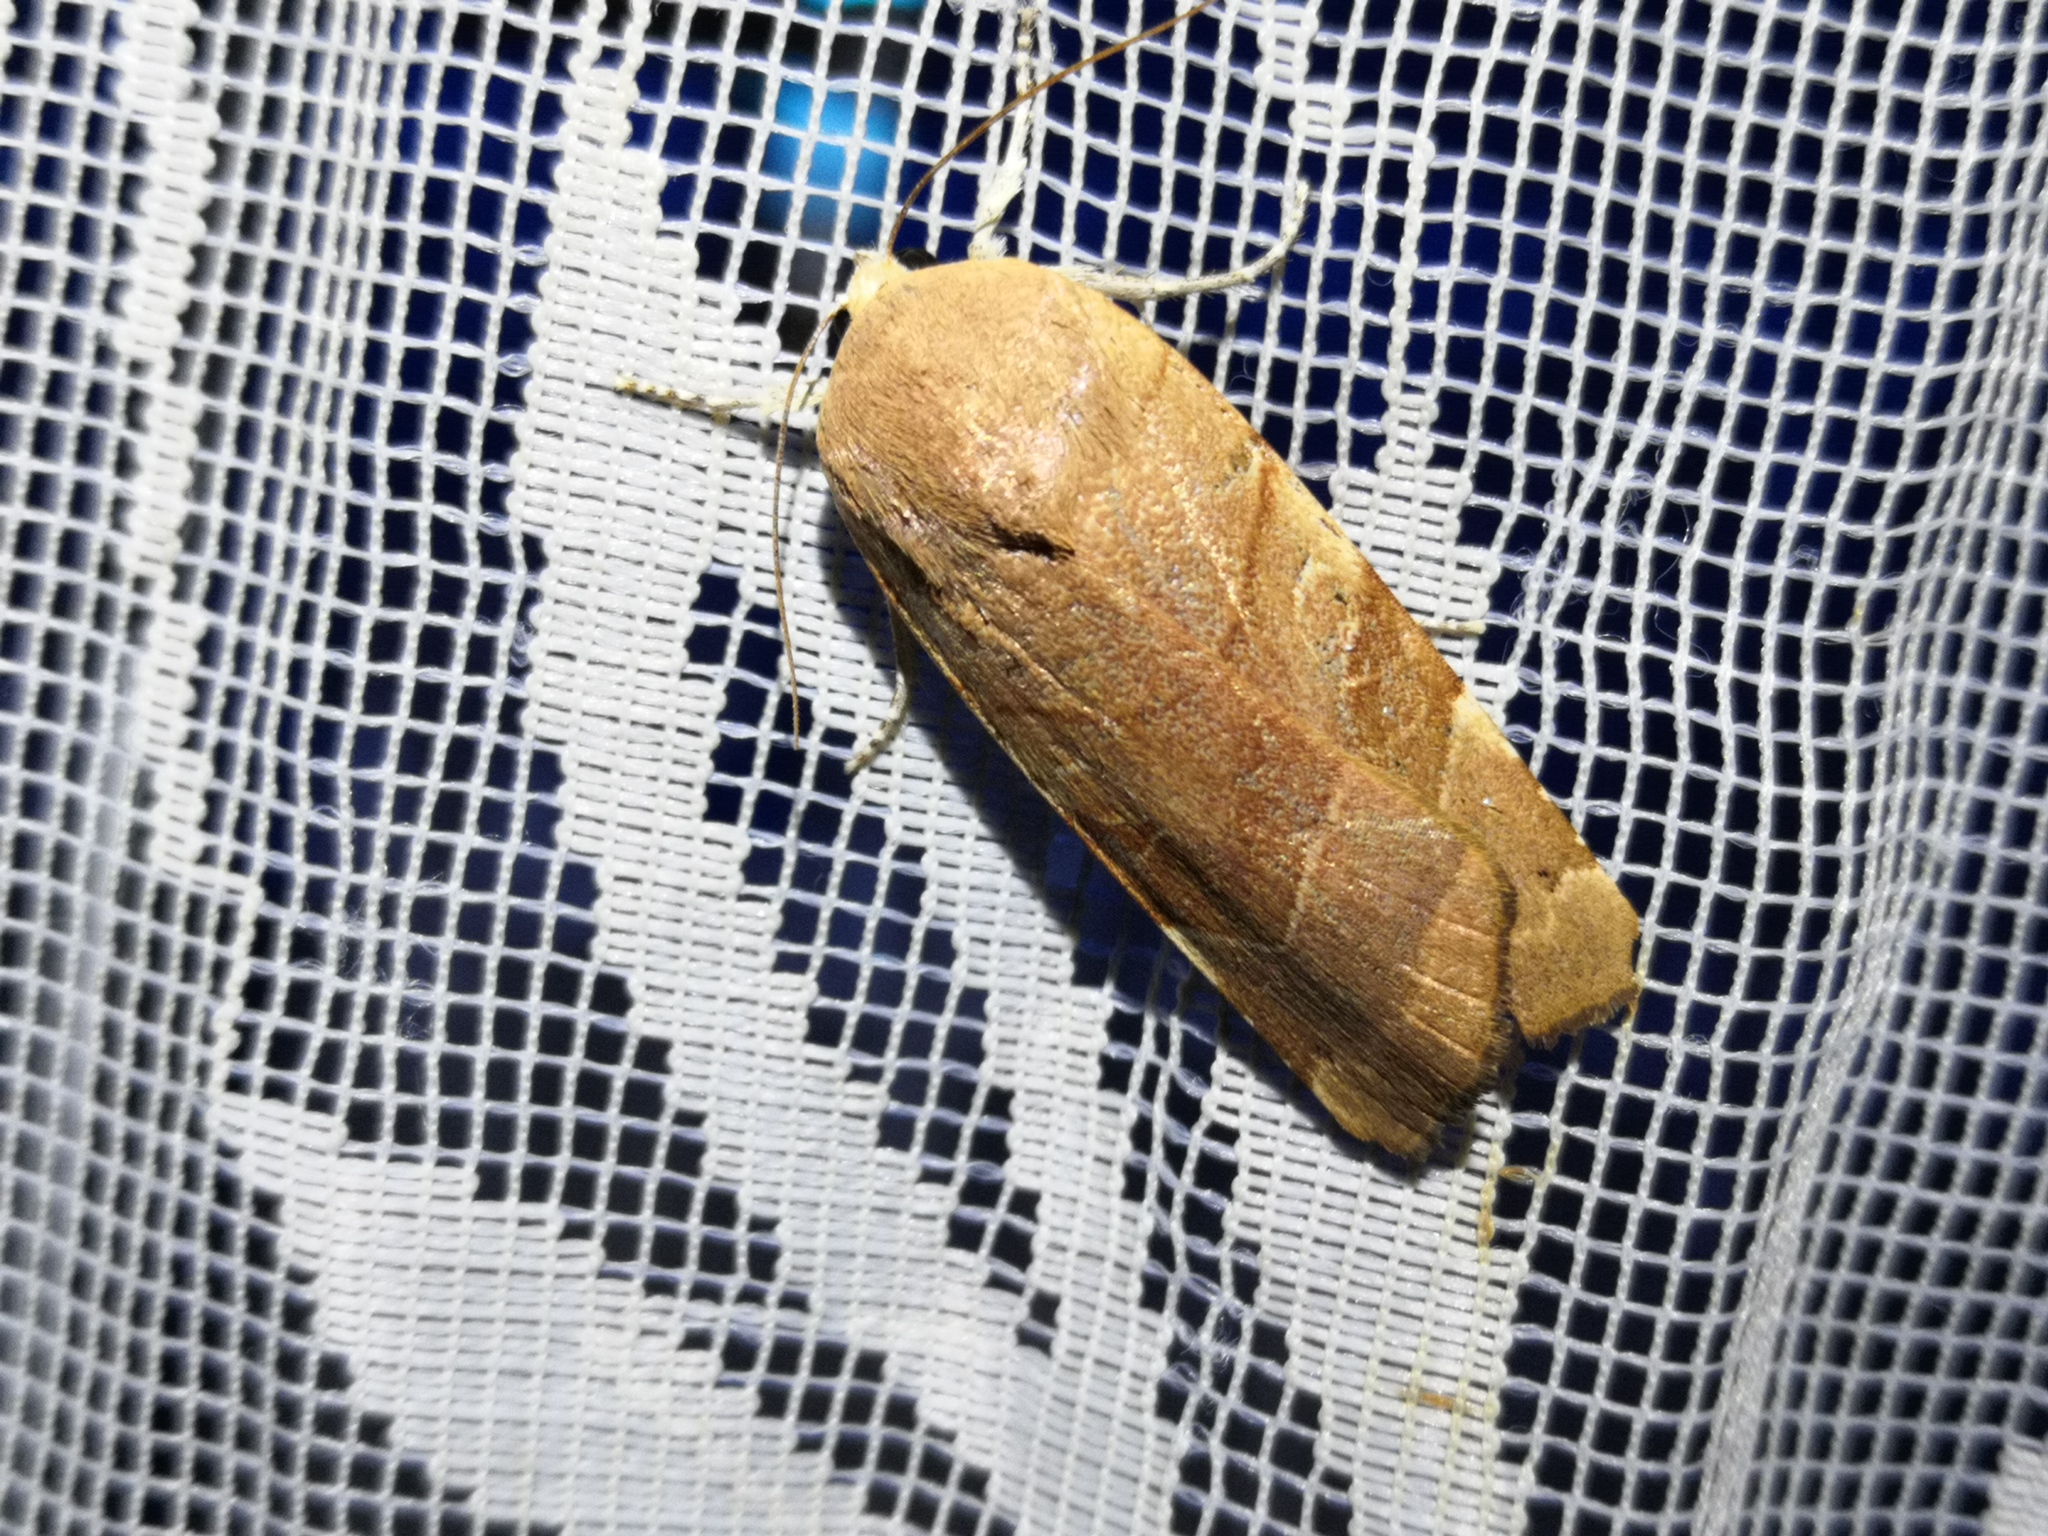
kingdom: Animalia
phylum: Arthropoda
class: Insecta
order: Lepidoptera
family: Noctuidae
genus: Noctua
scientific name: Noctua fimbriata
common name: Broad-bordered yellow underwing
